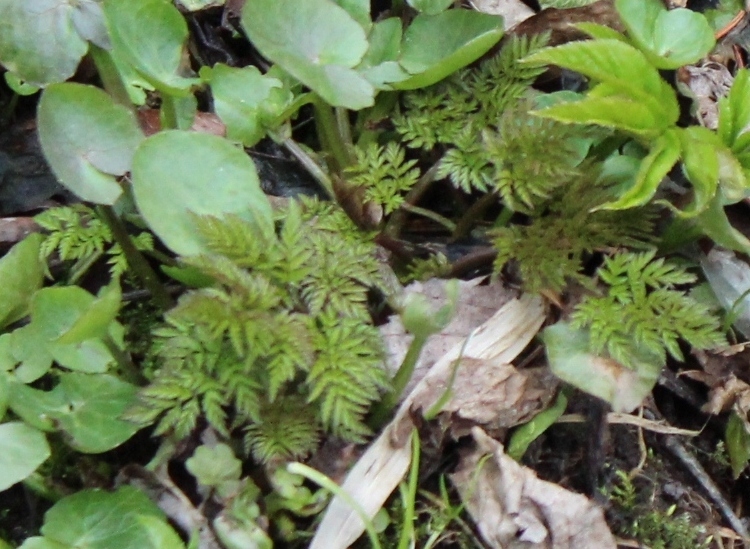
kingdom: Plantae
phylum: Tracheophyta
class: Magnoliopsida
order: Apiales
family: Apiaceae
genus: Anthriscus
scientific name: Anthriscus sylvestris
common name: Cow parsley
